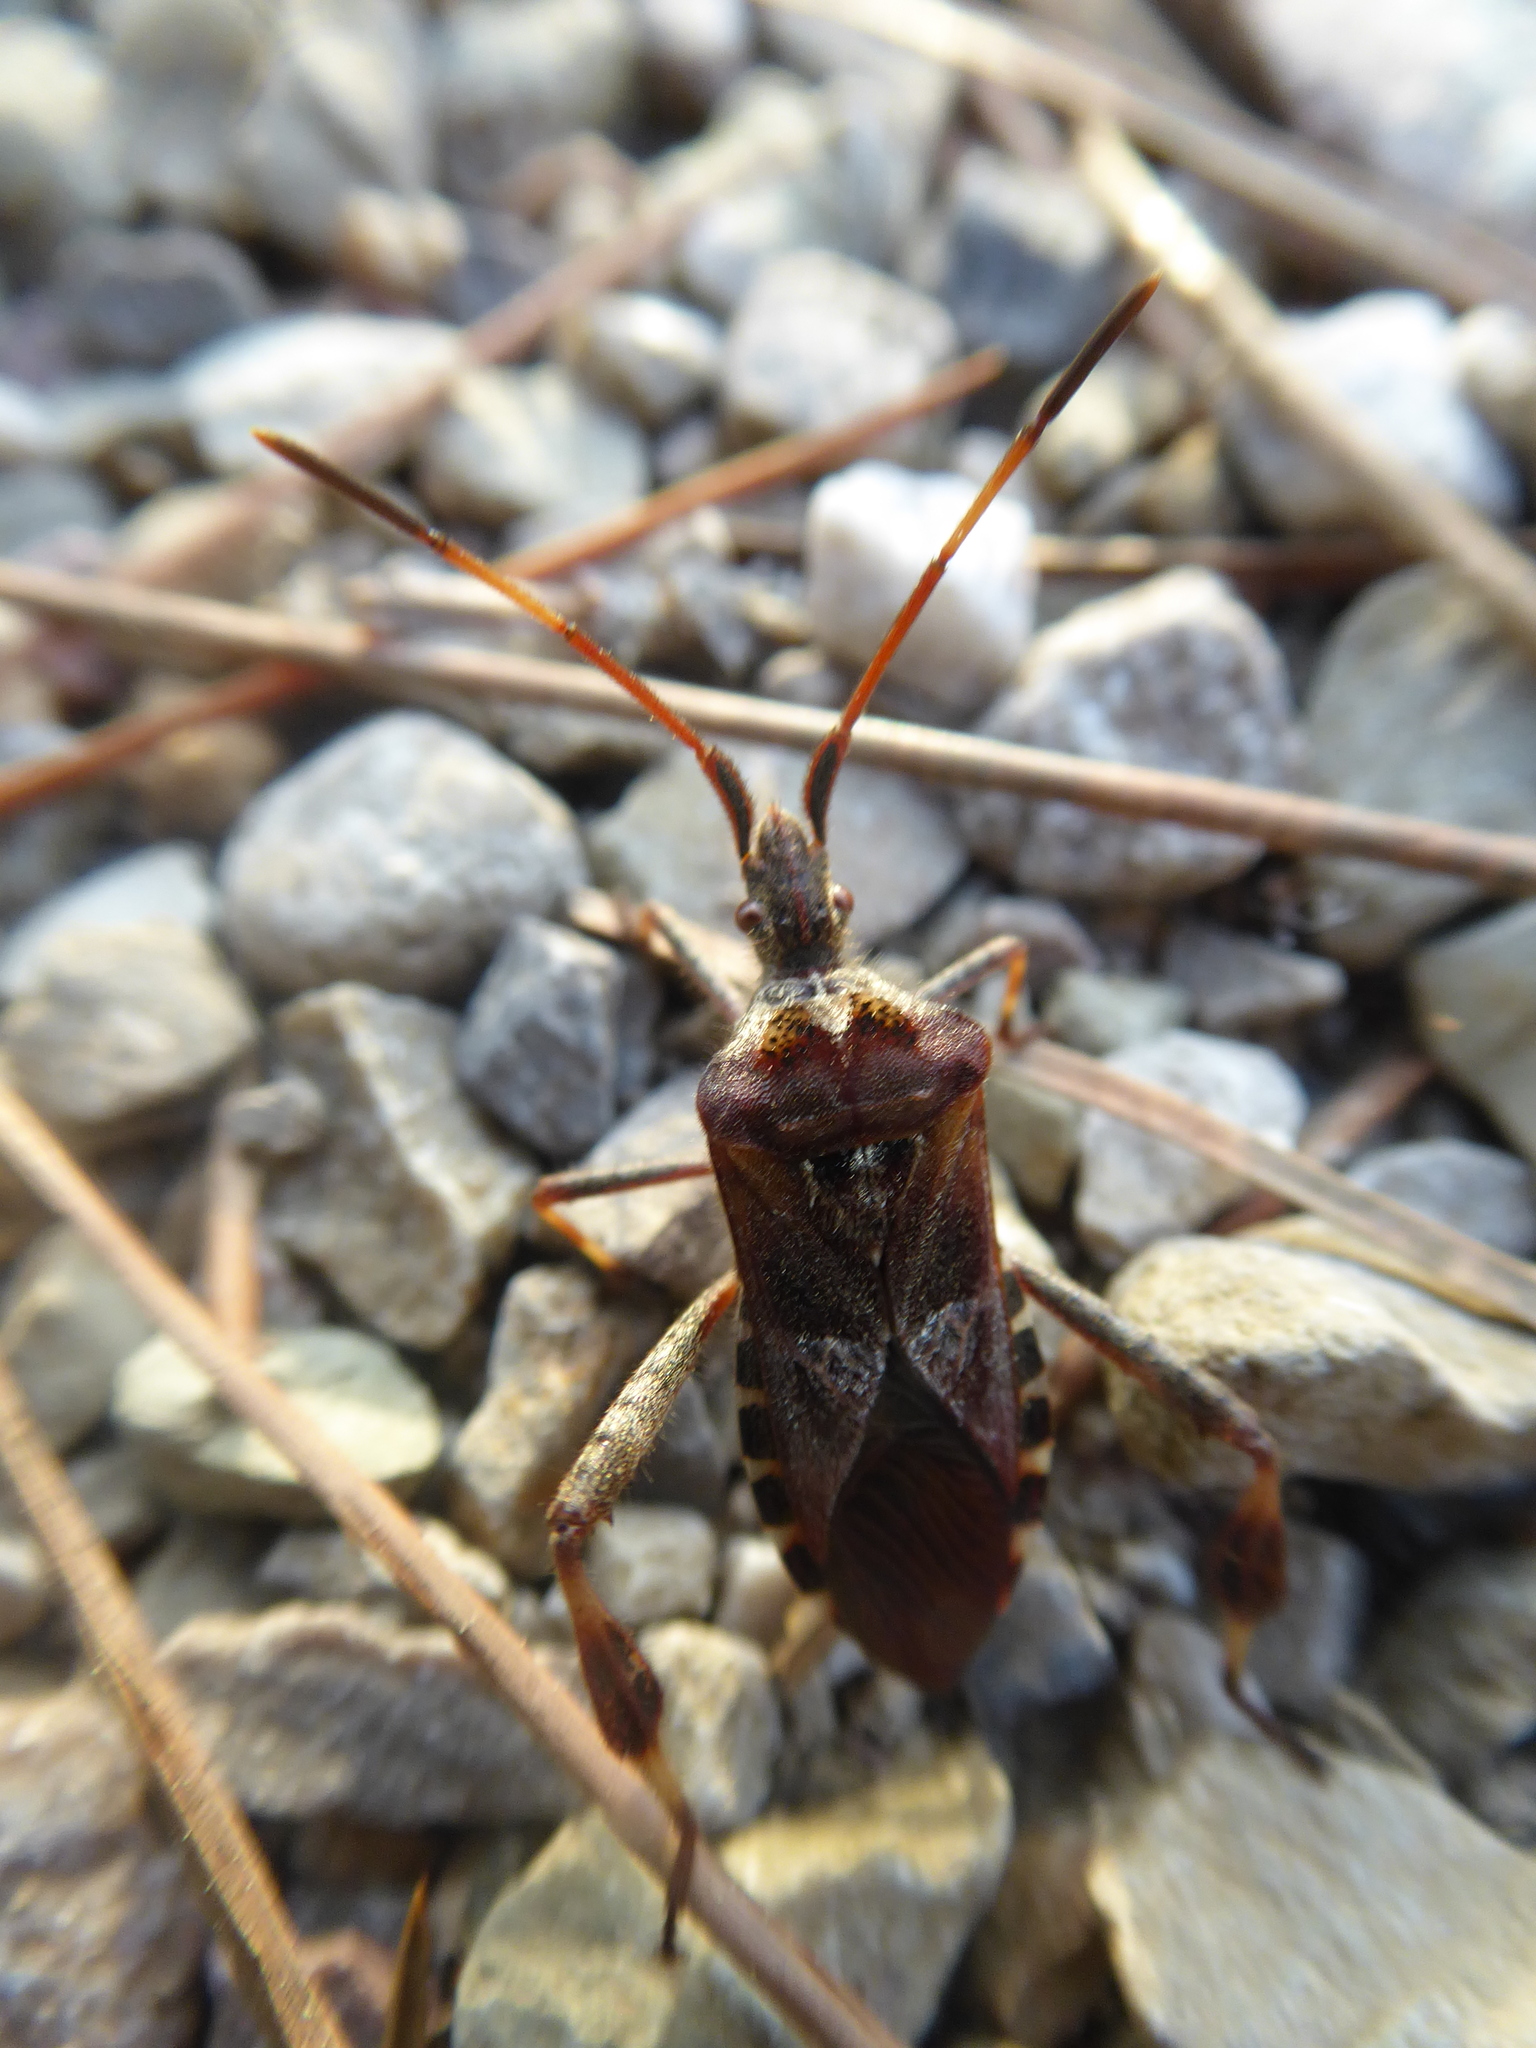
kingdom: Animalia
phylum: Arthropoda
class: Insecta
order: Hemiptera
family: Coreidae
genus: Leptoglossus
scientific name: Leptoglossus occidentalis
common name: Western conifer-seed bug
